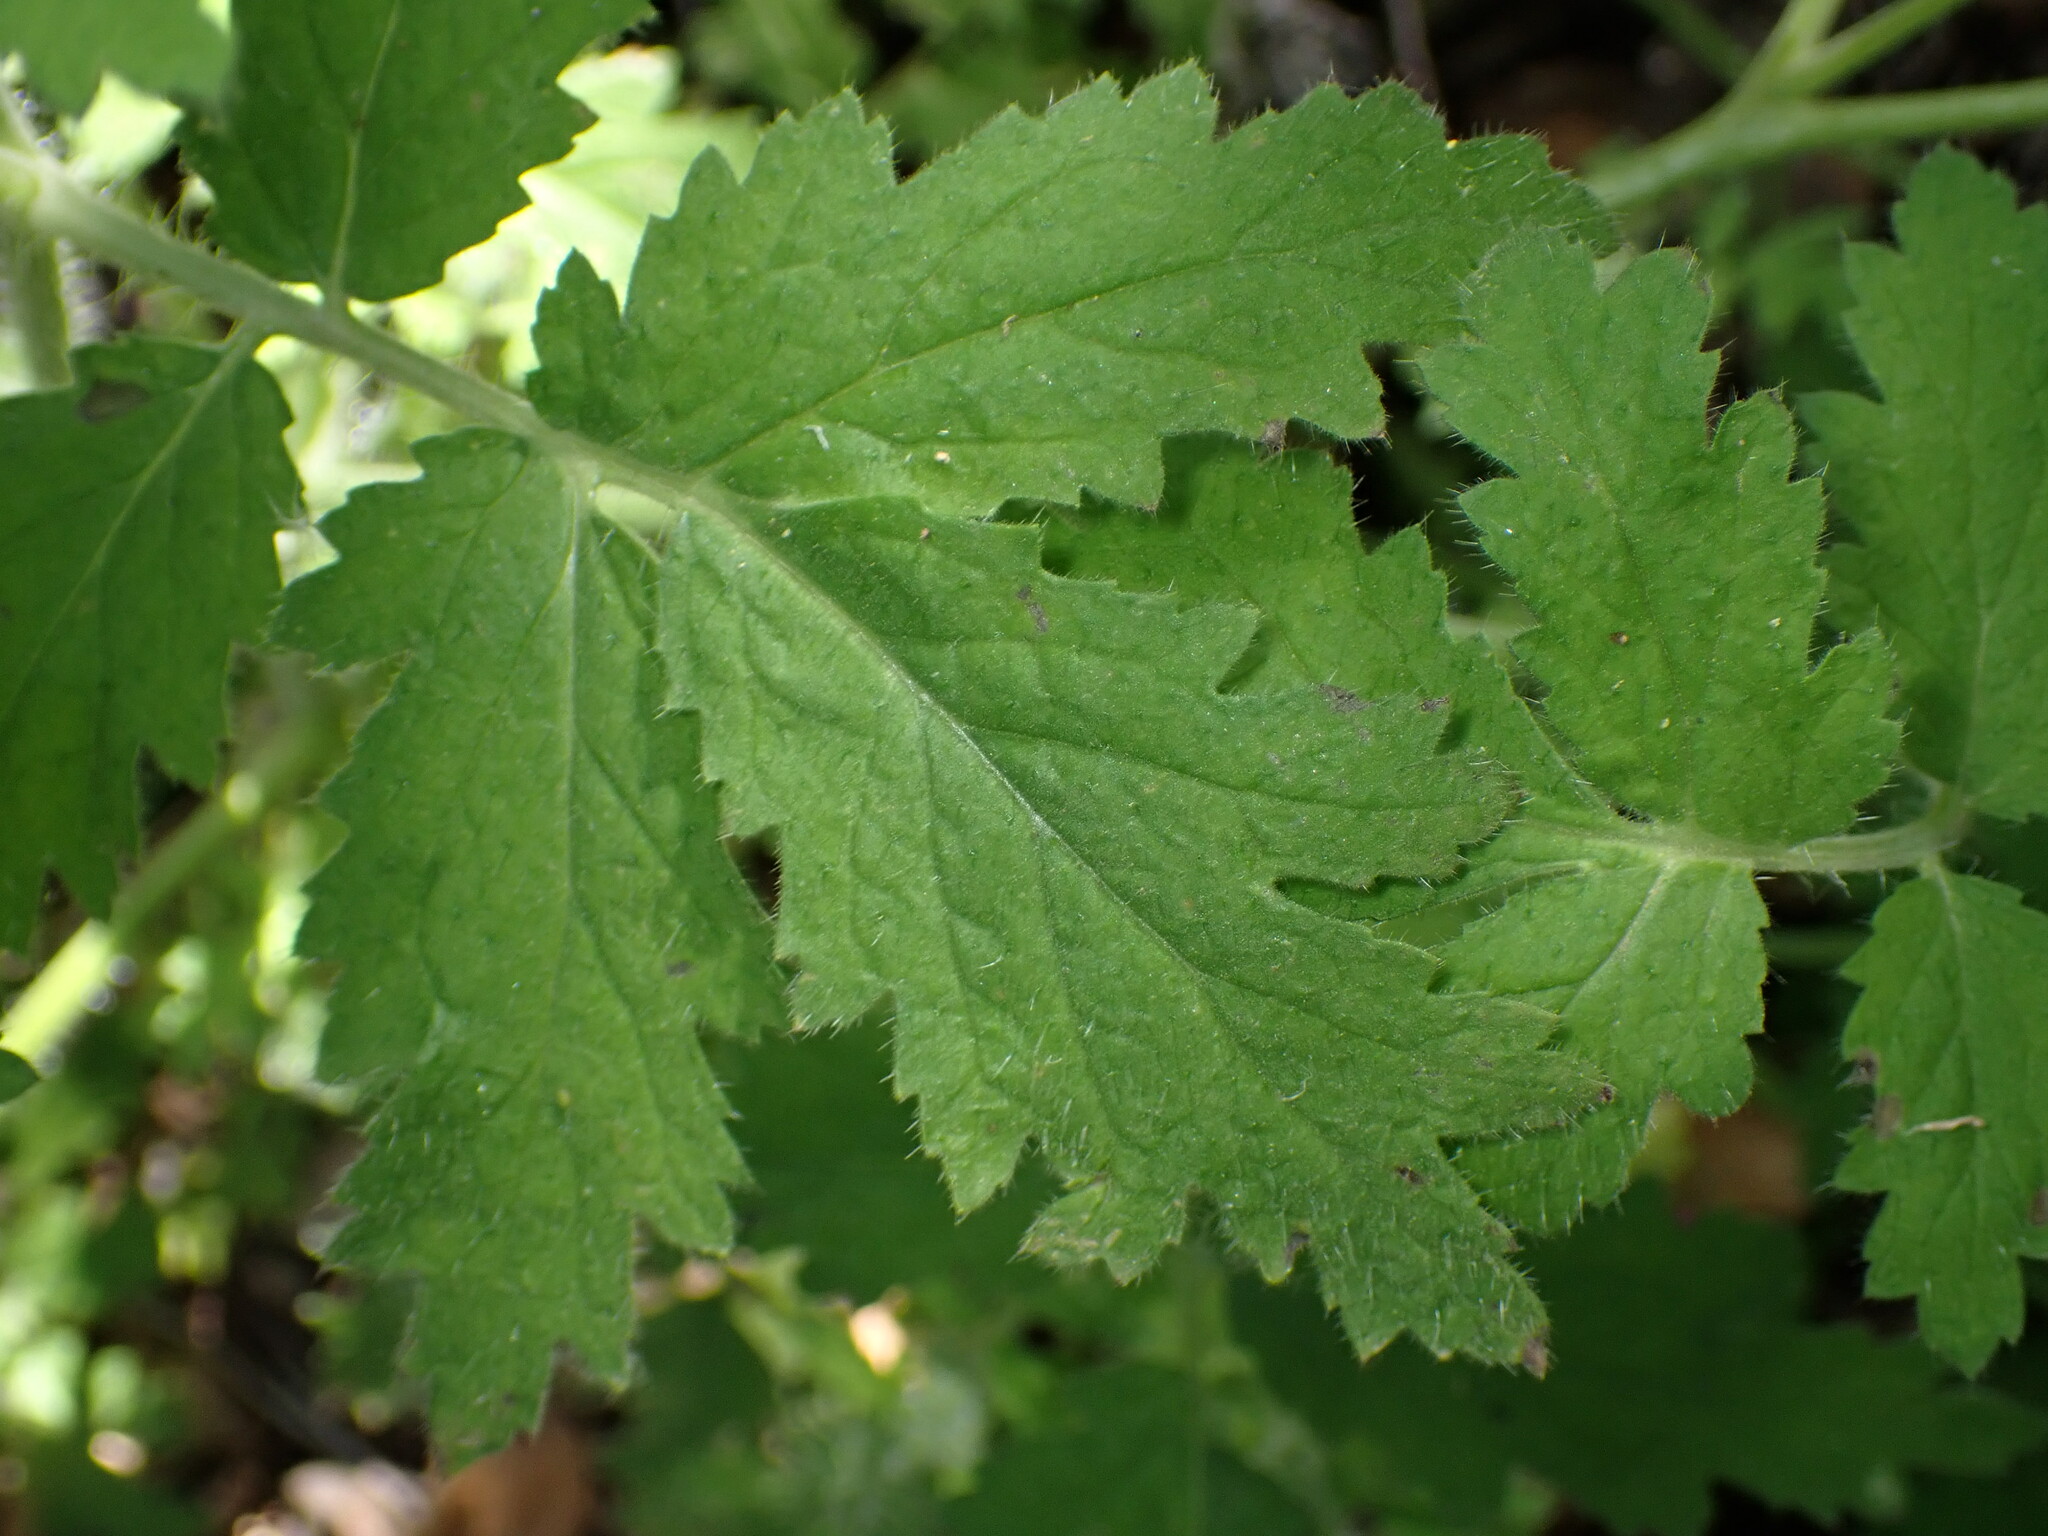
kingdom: Plantae
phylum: Tracheophyta
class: Magnoliopsida
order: Boraginales
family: Hydrophyllaceae
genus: Phacelia
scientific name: Phacelia cicutaria
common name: Caterpillar phacelia
